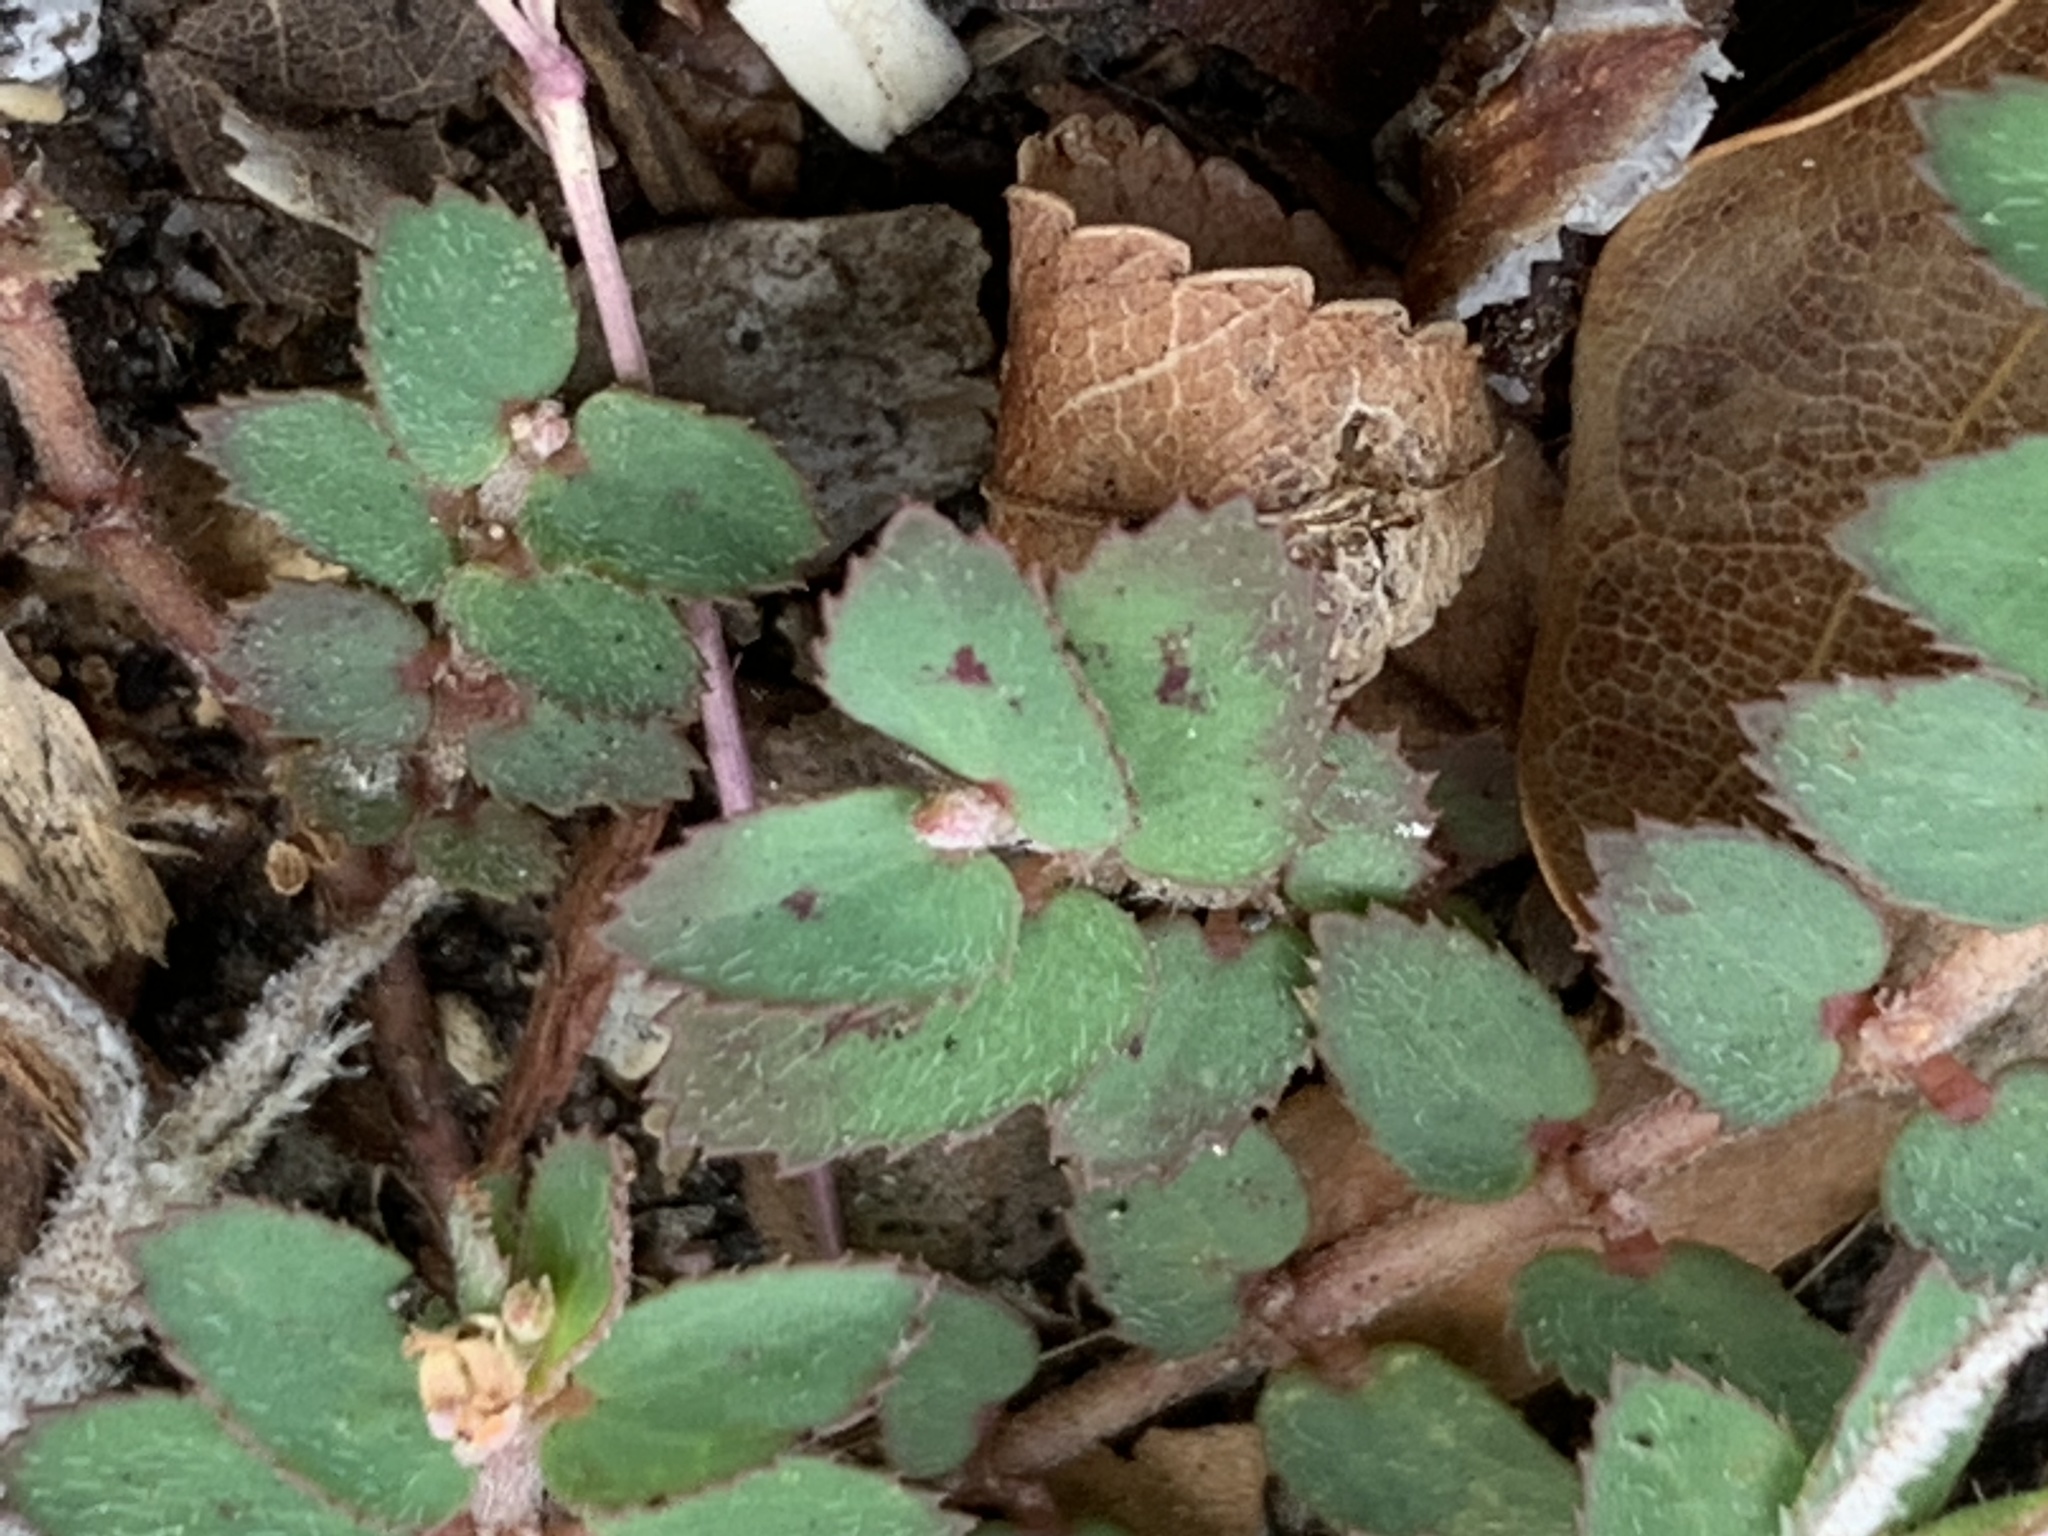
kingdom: Plantae
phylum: Tracheophyta
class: Magnoliopsida
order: Malpighiales
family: Euphorbiaceae
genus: Euphorbia
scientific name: Euphorbia thymifolia
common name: Gulf sandmat
